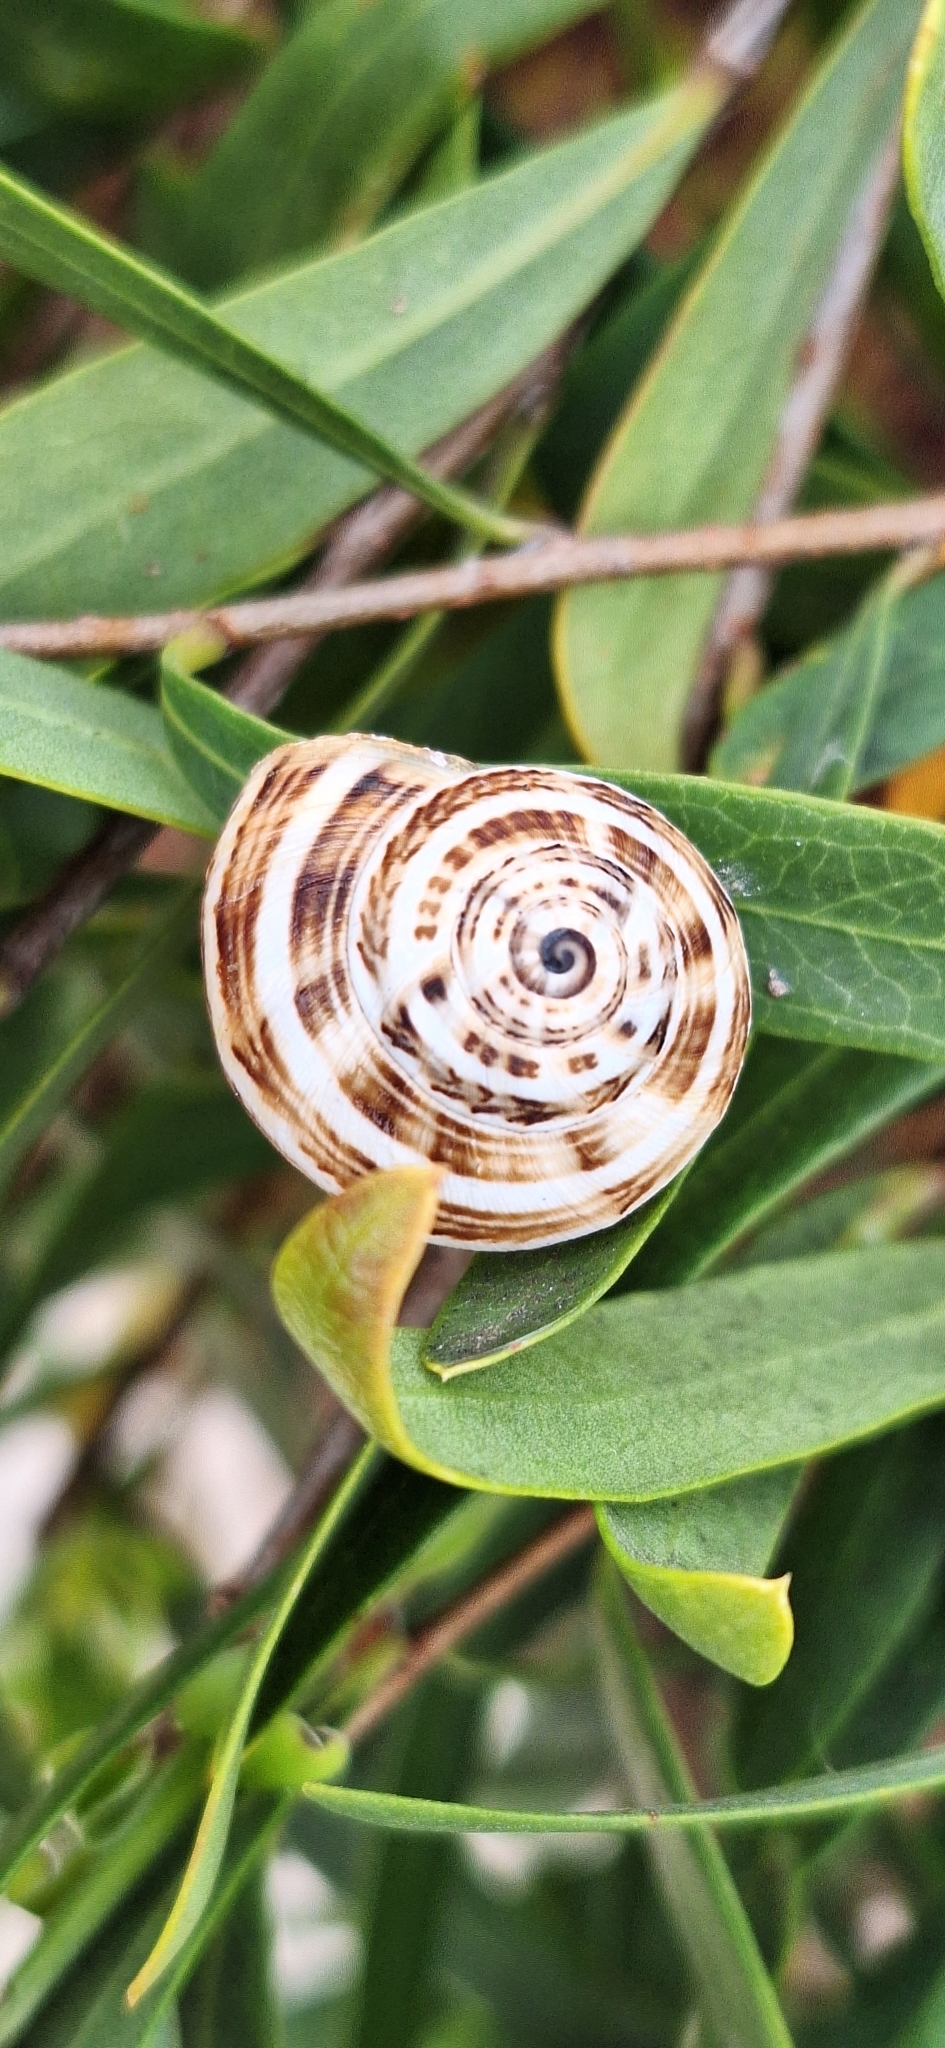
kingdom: Animalia
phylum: Mollusca
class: Gastropoda
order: Stylommatophora
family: Helicidae
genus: Theba
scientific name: Theba pisana
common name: White snail
